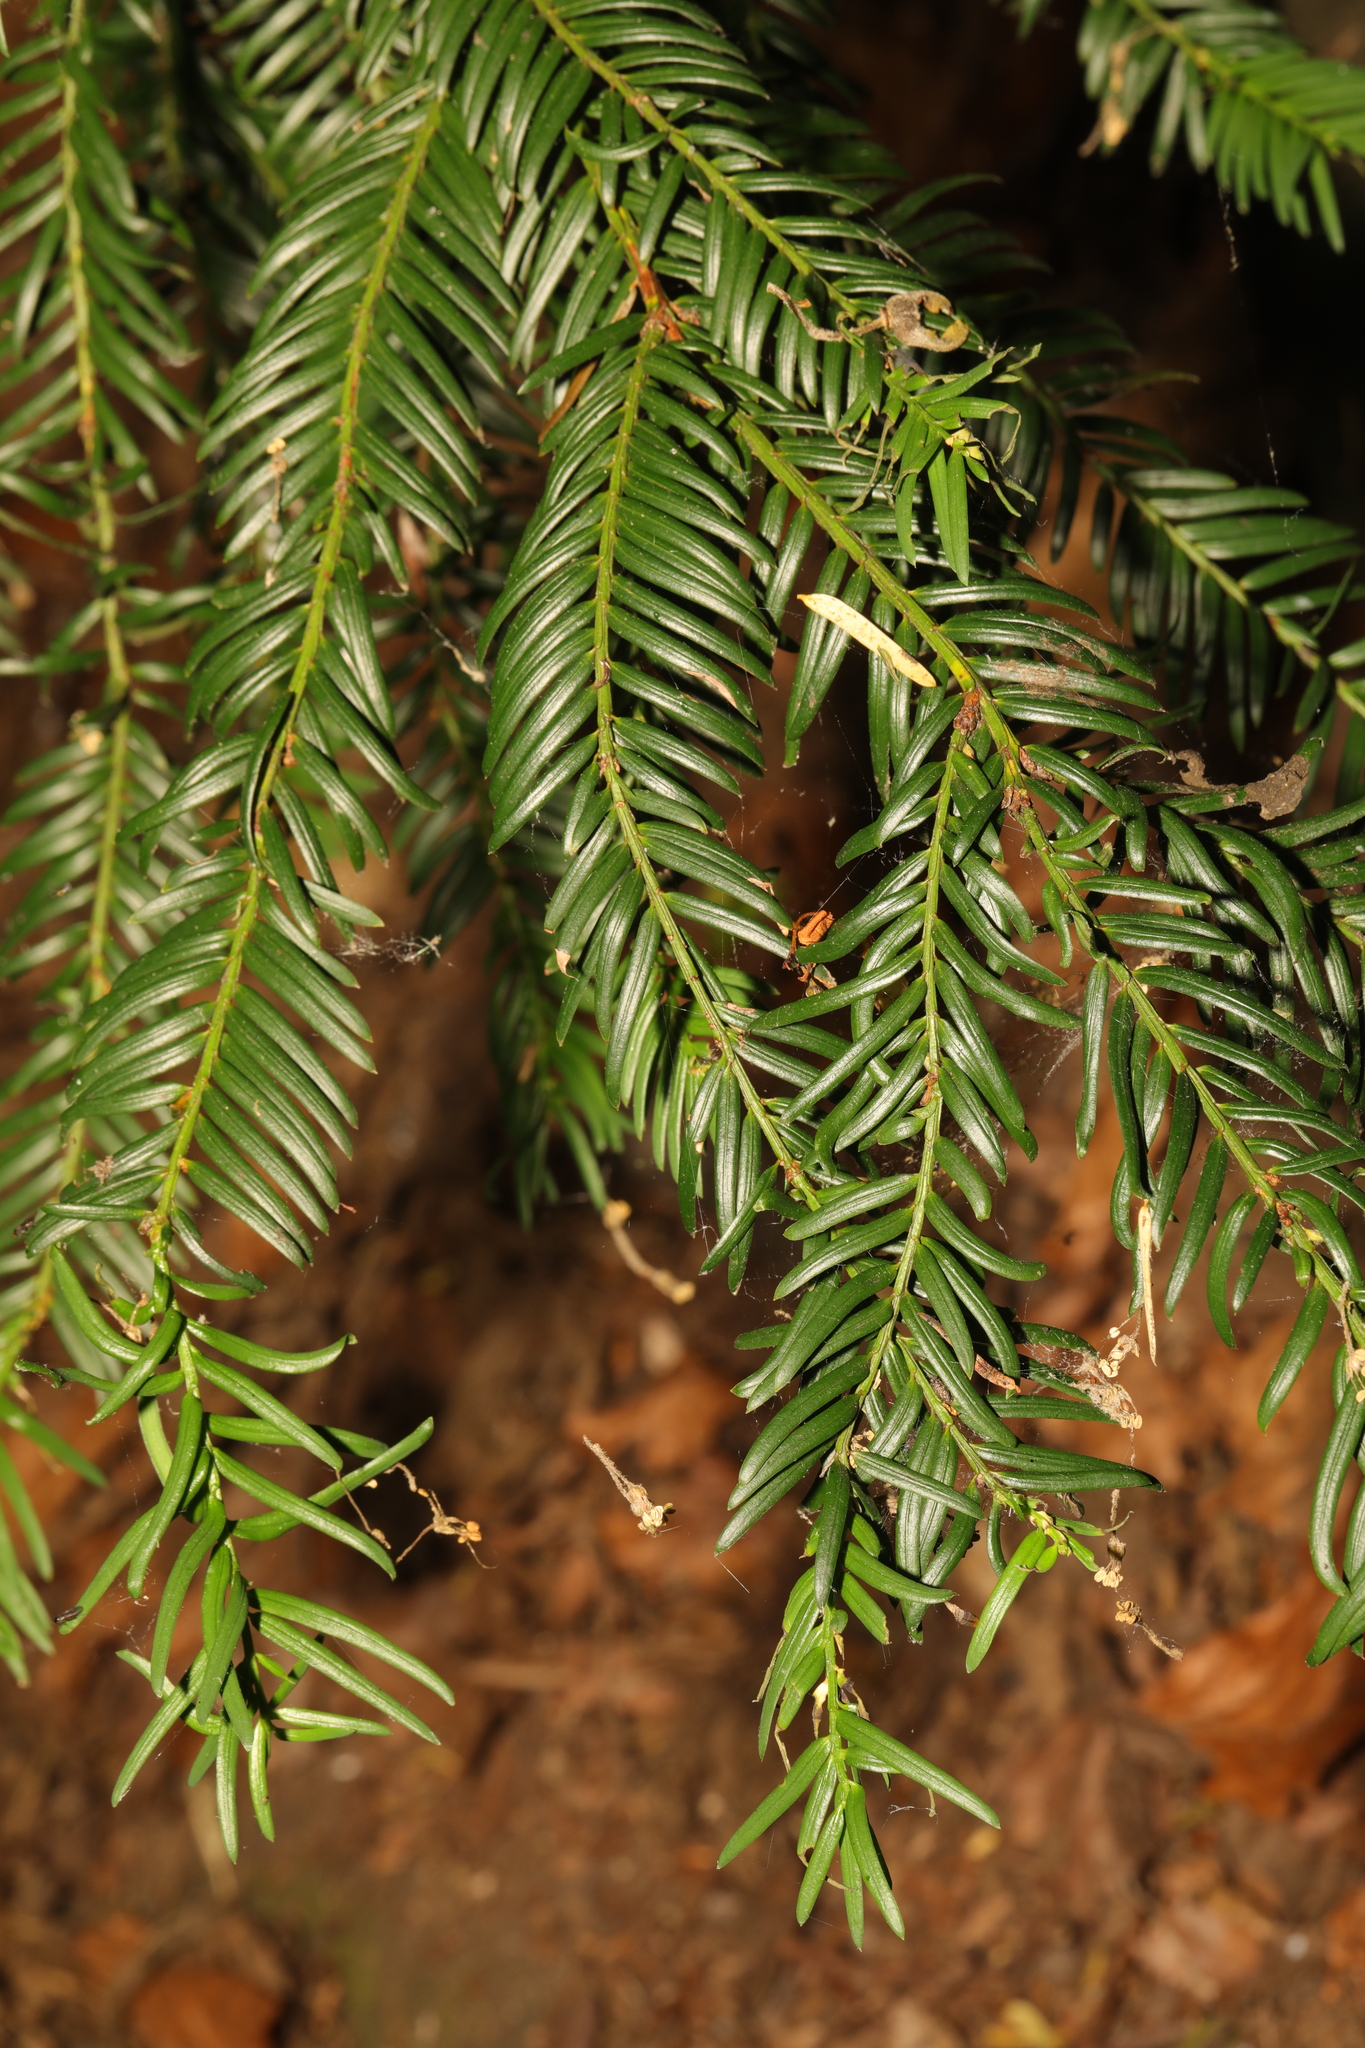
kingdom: Plantae
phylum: Tracheophyta
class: Pinopsida
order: Pinales
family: Taxaceae
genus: Taxus
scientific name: Taxus baccata
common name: Yew
